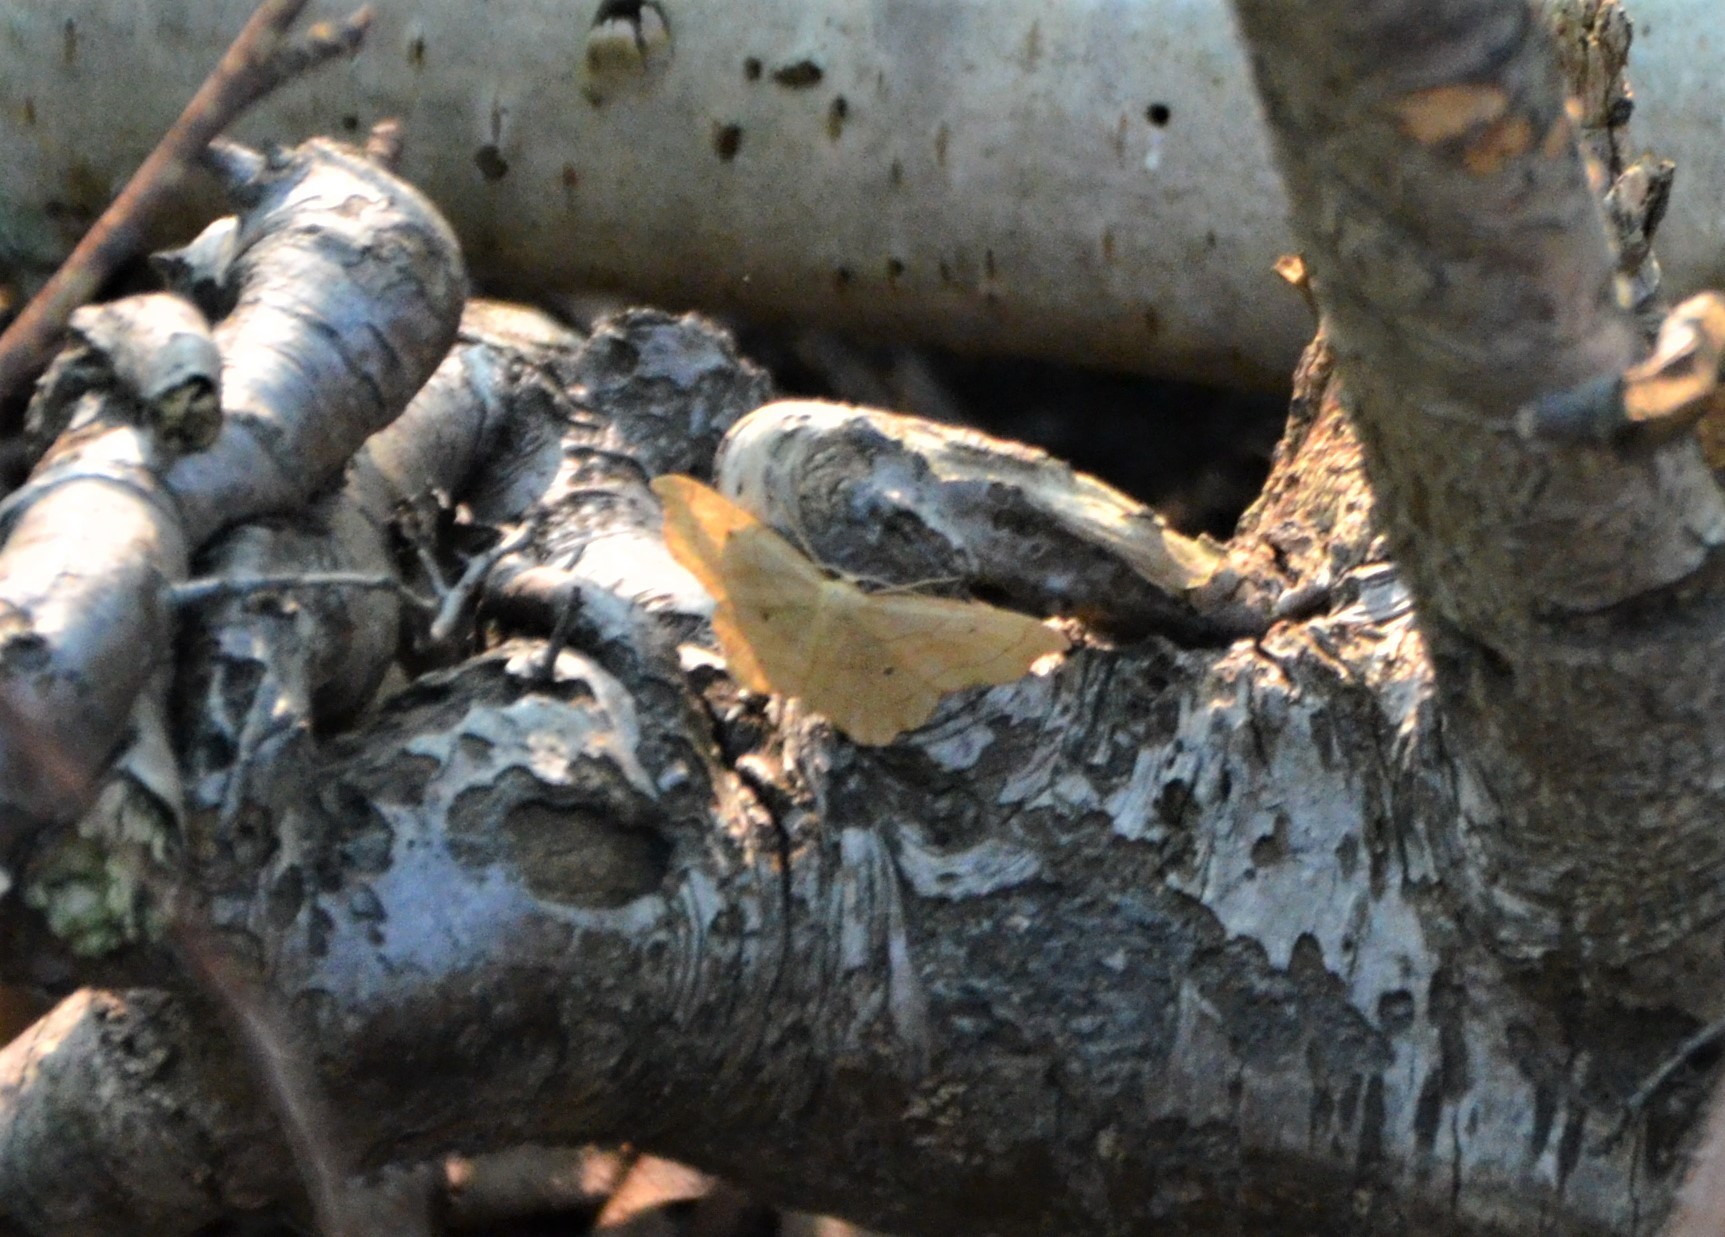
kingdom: Animalia
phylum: Arthropoda
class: Insecta
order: Lepidoptera
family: Geometridae
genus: Idaea
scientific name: Idaea emarginata
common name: Small scallop
